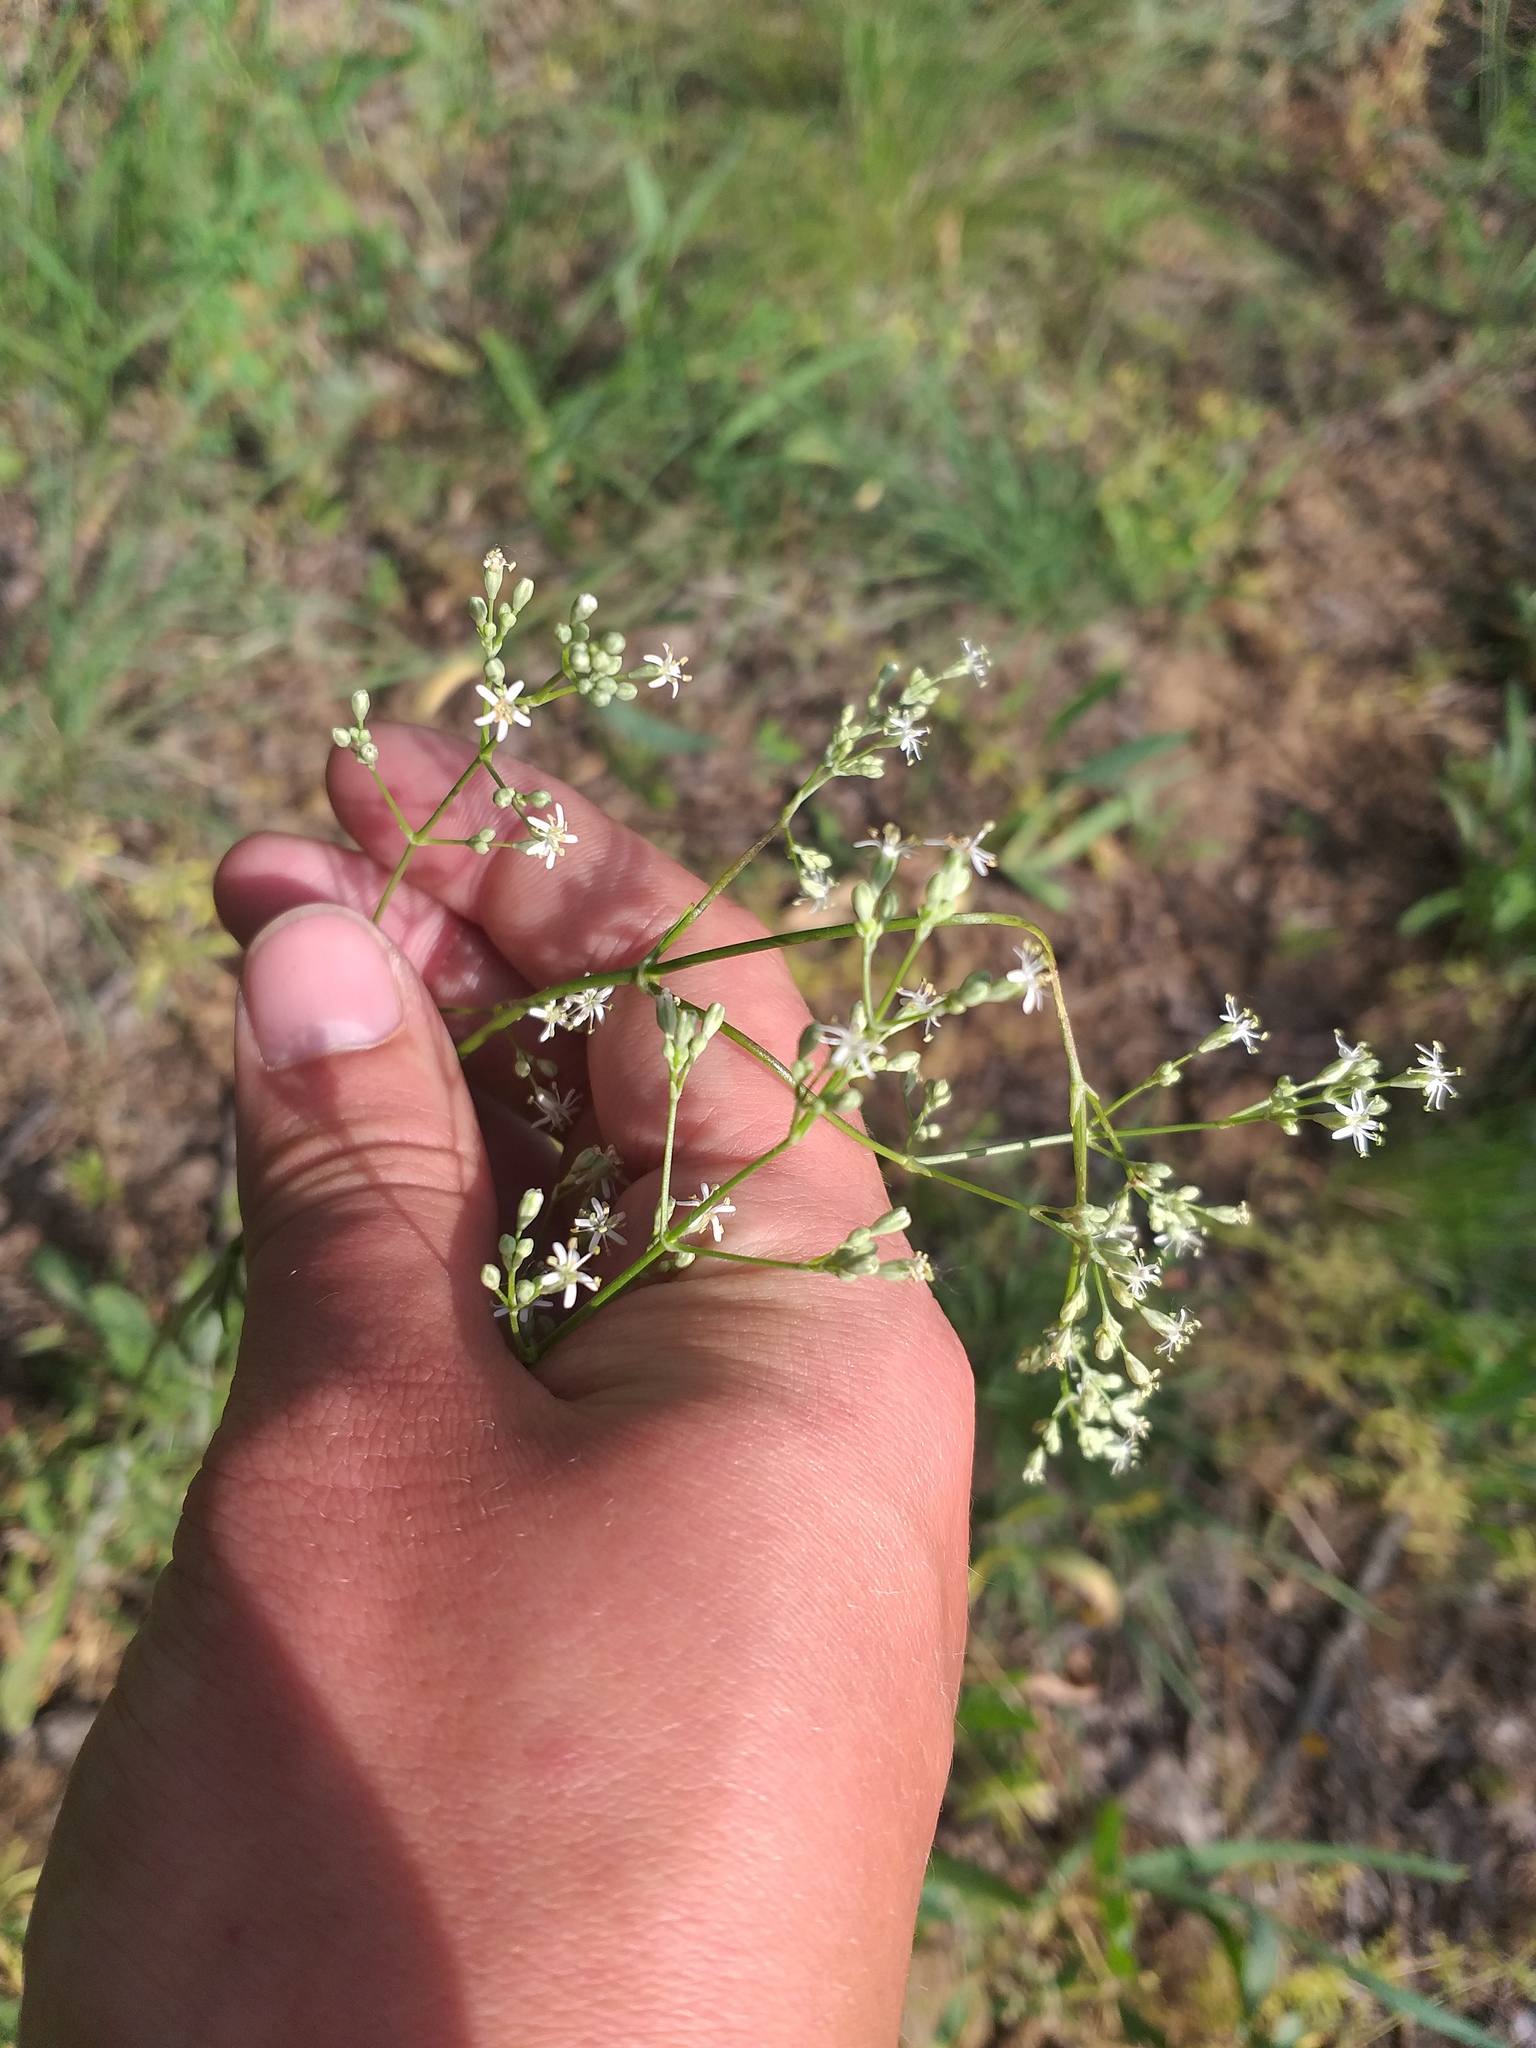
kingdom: Plantae
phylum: Tracheophyta
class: Magnoliopsida
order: Caryophyllales
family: Caryophyllaceae
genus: Silene
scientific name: Silene wolgensis
